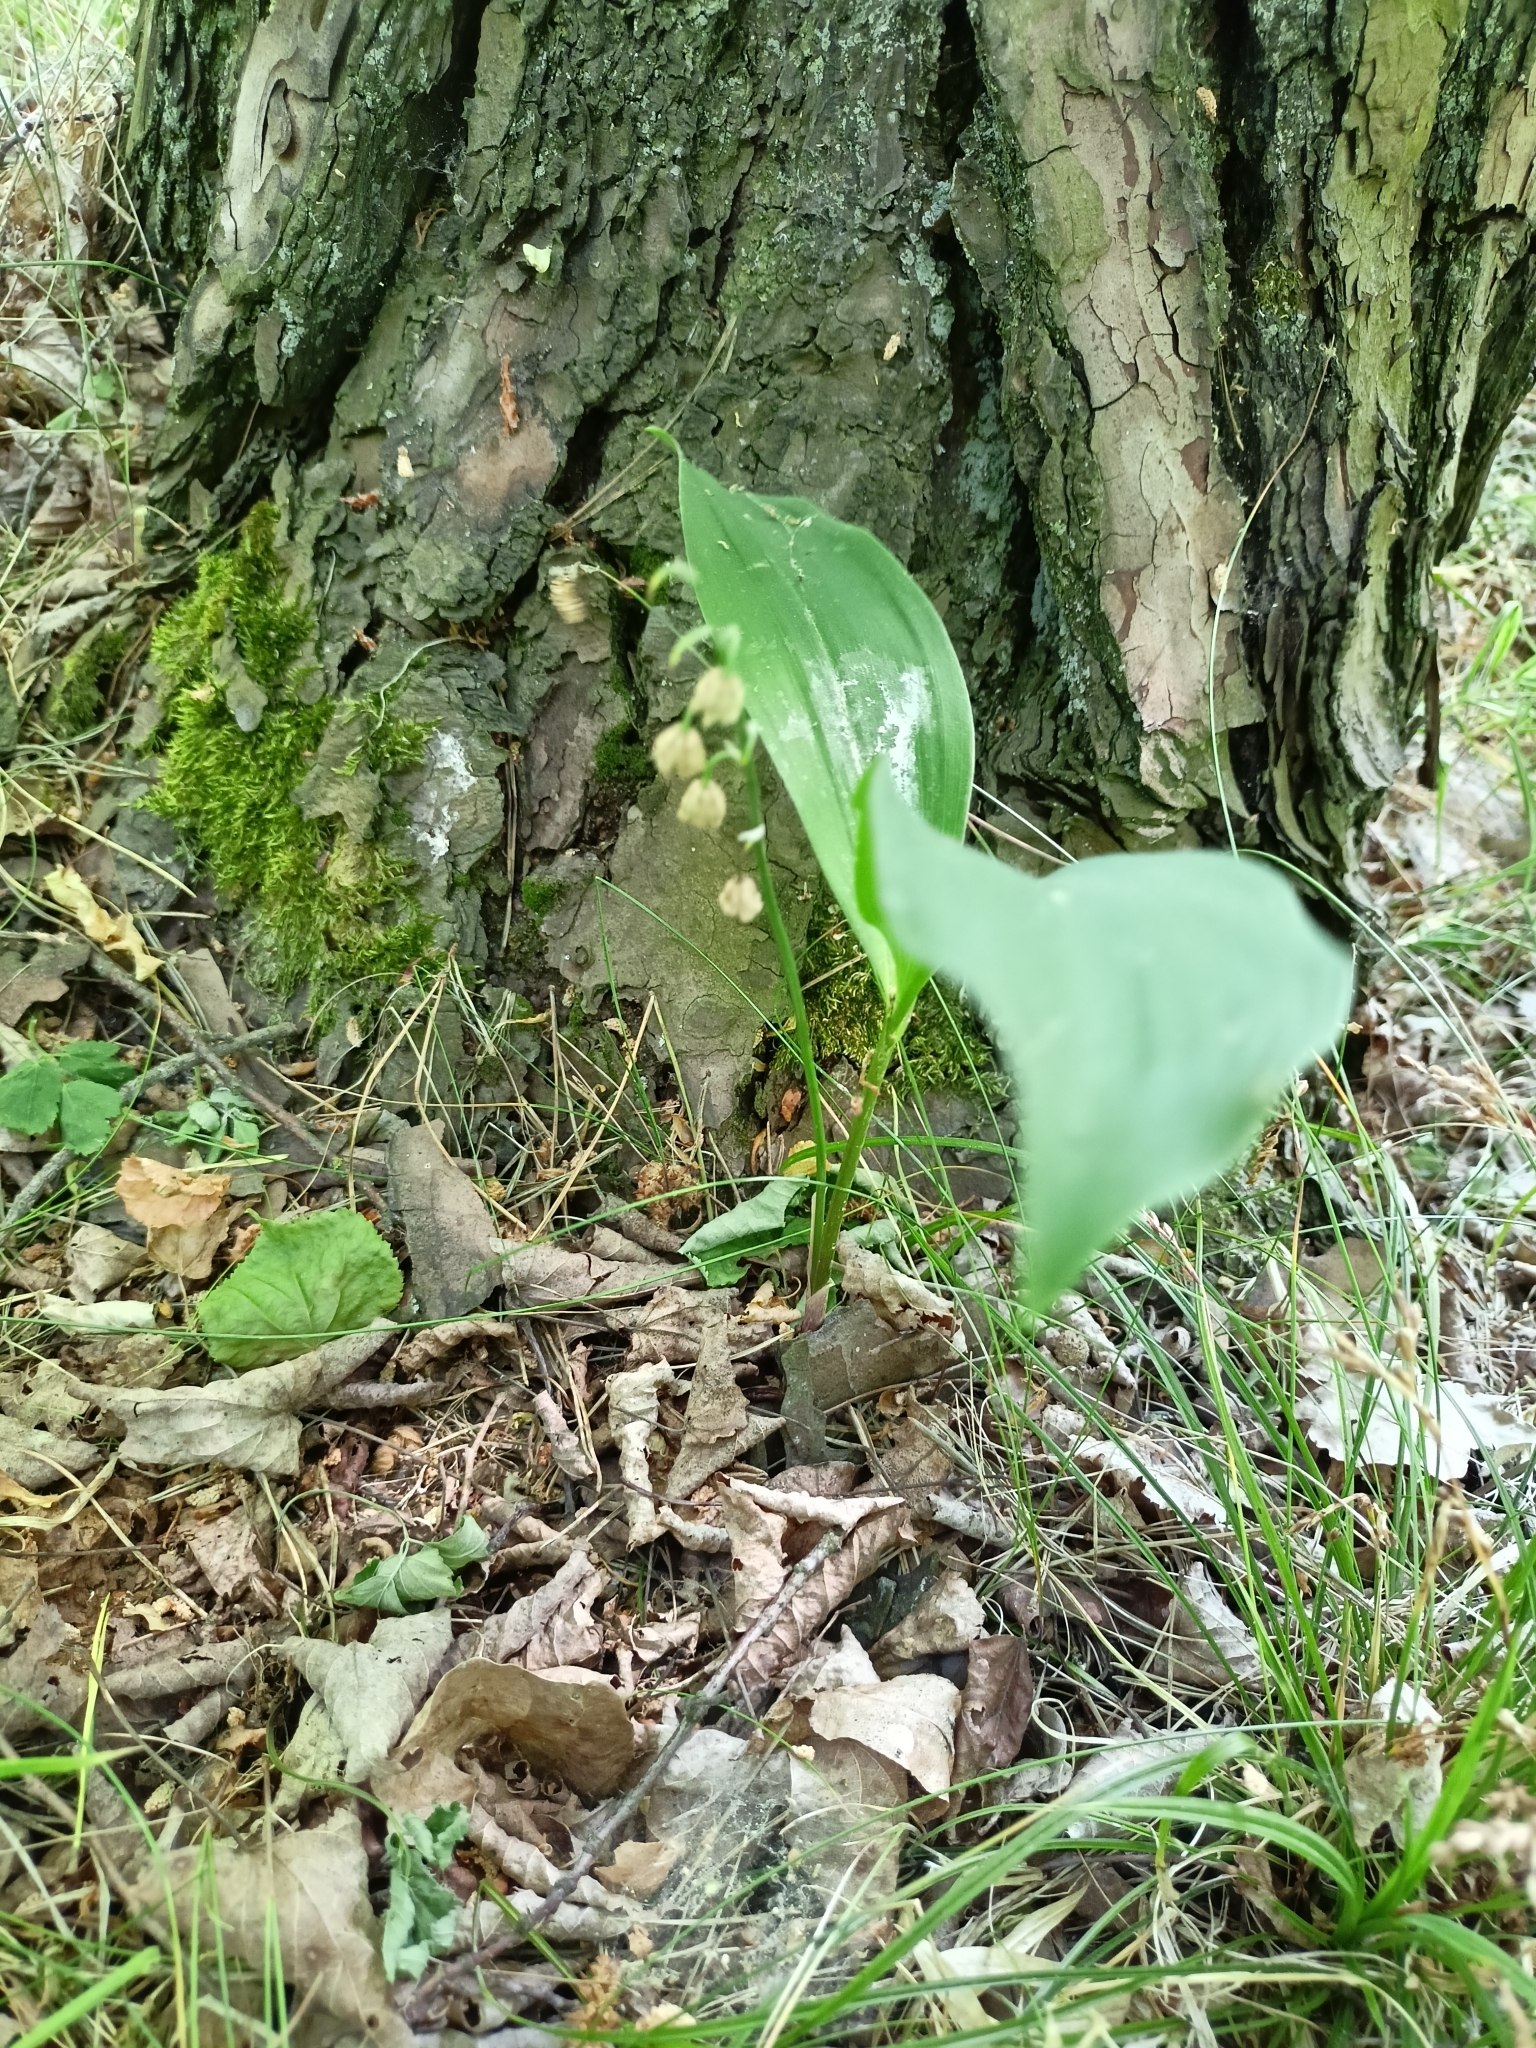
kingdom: Plantae
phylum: Tracheophyta
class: Liliopsida
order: Asparagales
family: Asparagaceae
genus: Convallaria
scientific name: Convallaria majalis
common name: Lily-of-the-valley
